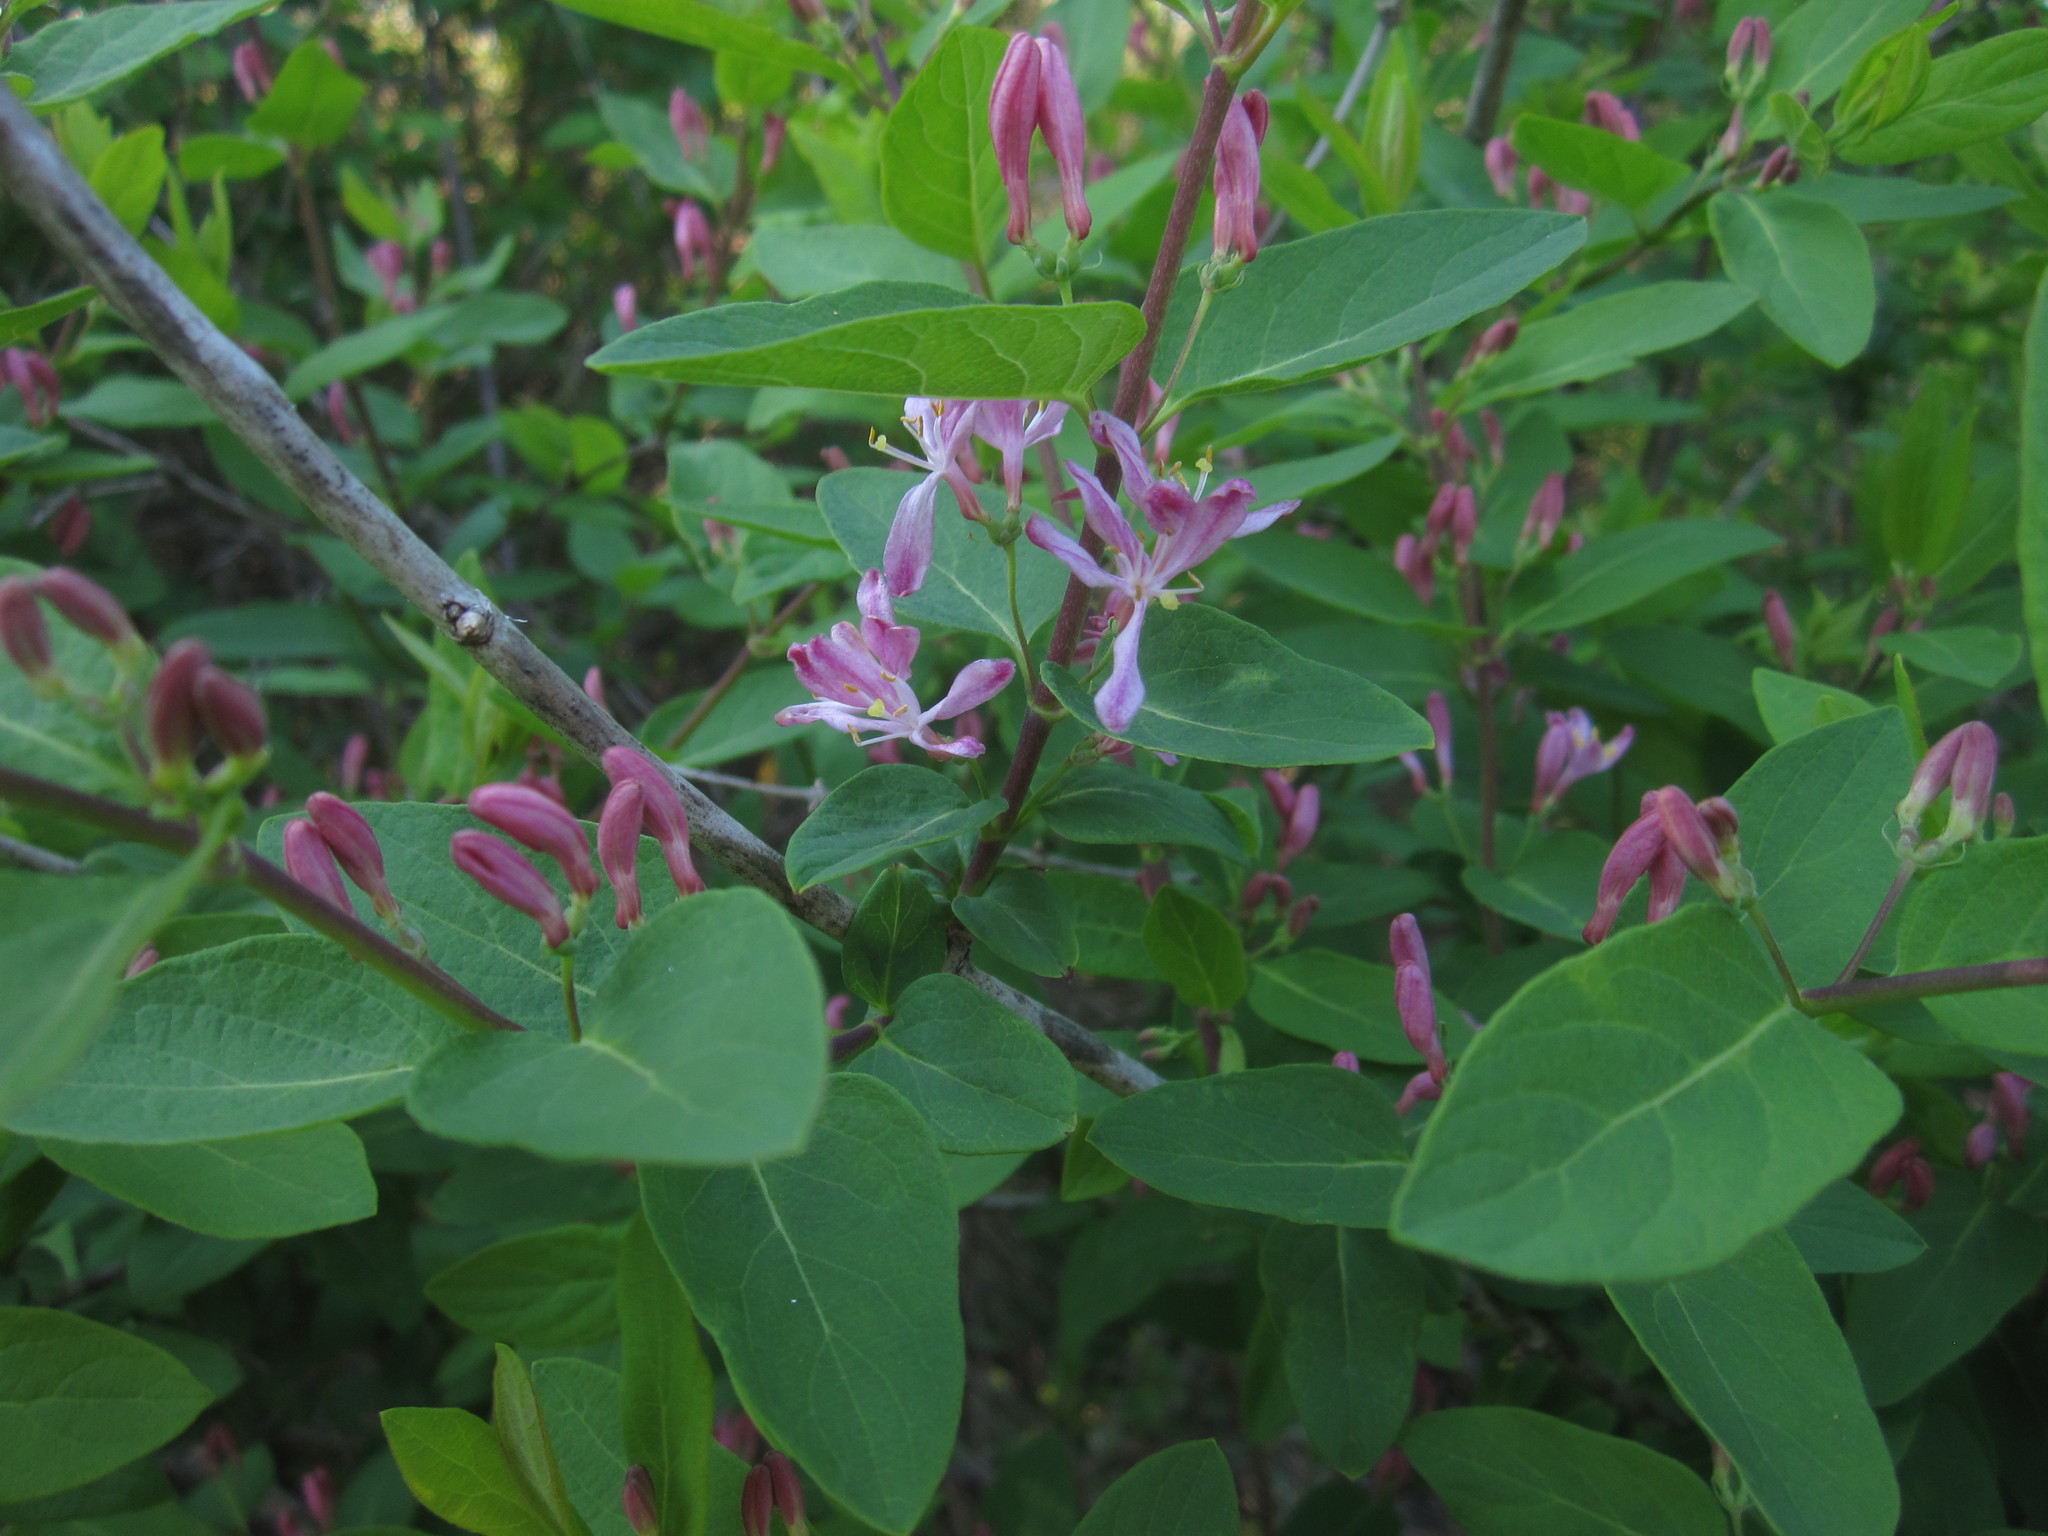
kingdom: Plantae
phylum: Tracheophyta
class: Magnoliopsida
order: Dipsacales
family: Caprifoliaceae
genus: Lonicera
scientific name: Lonicera tatarica
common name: Tatarian honeysuckle
